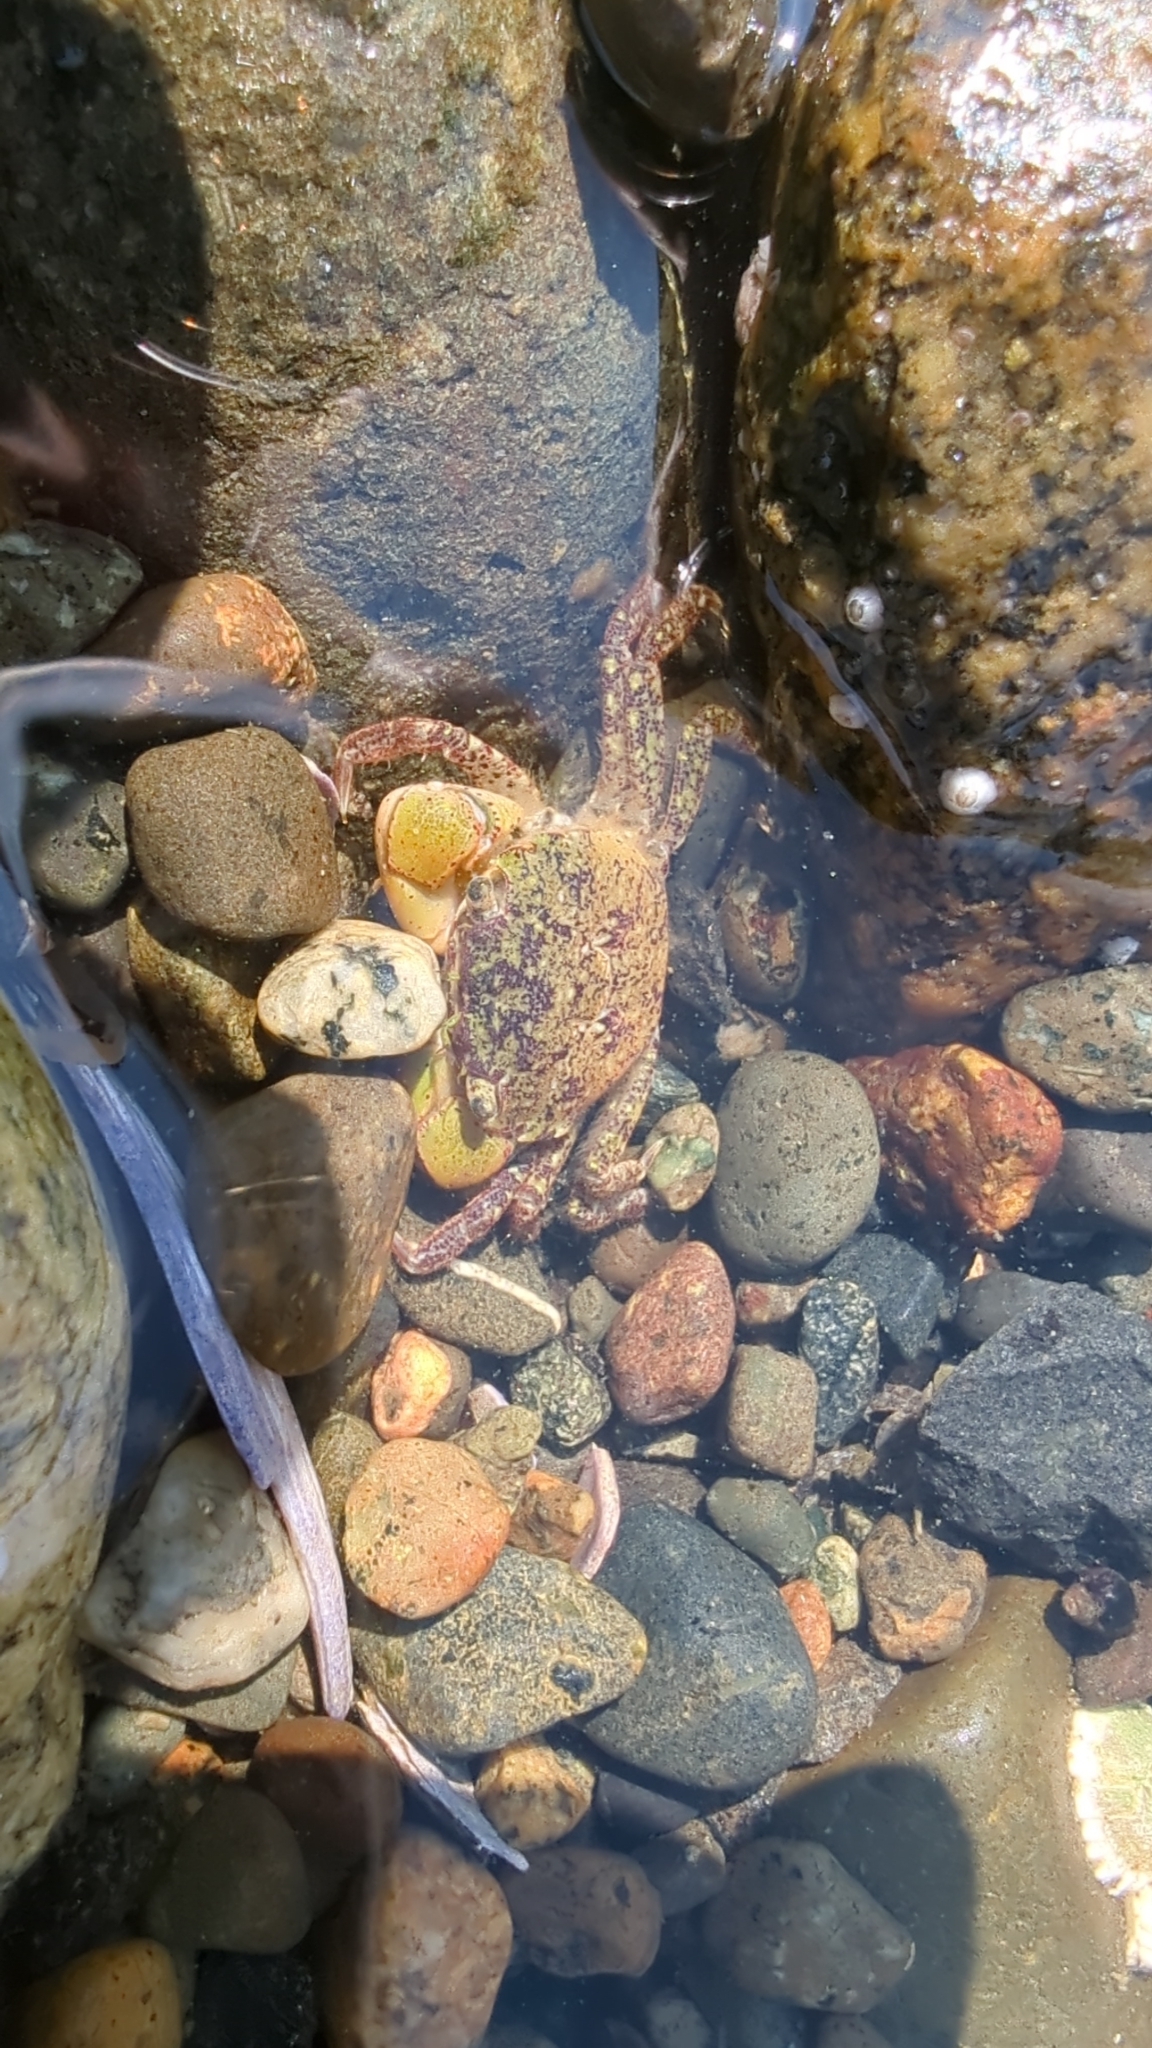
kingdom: Animalia
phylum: Arthropoda
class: Malacostraca
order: Decapoda
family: Varunidae
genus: Hemigrapsus
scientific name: Hemigrapsus oregonensis
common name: Yellow shore crab
